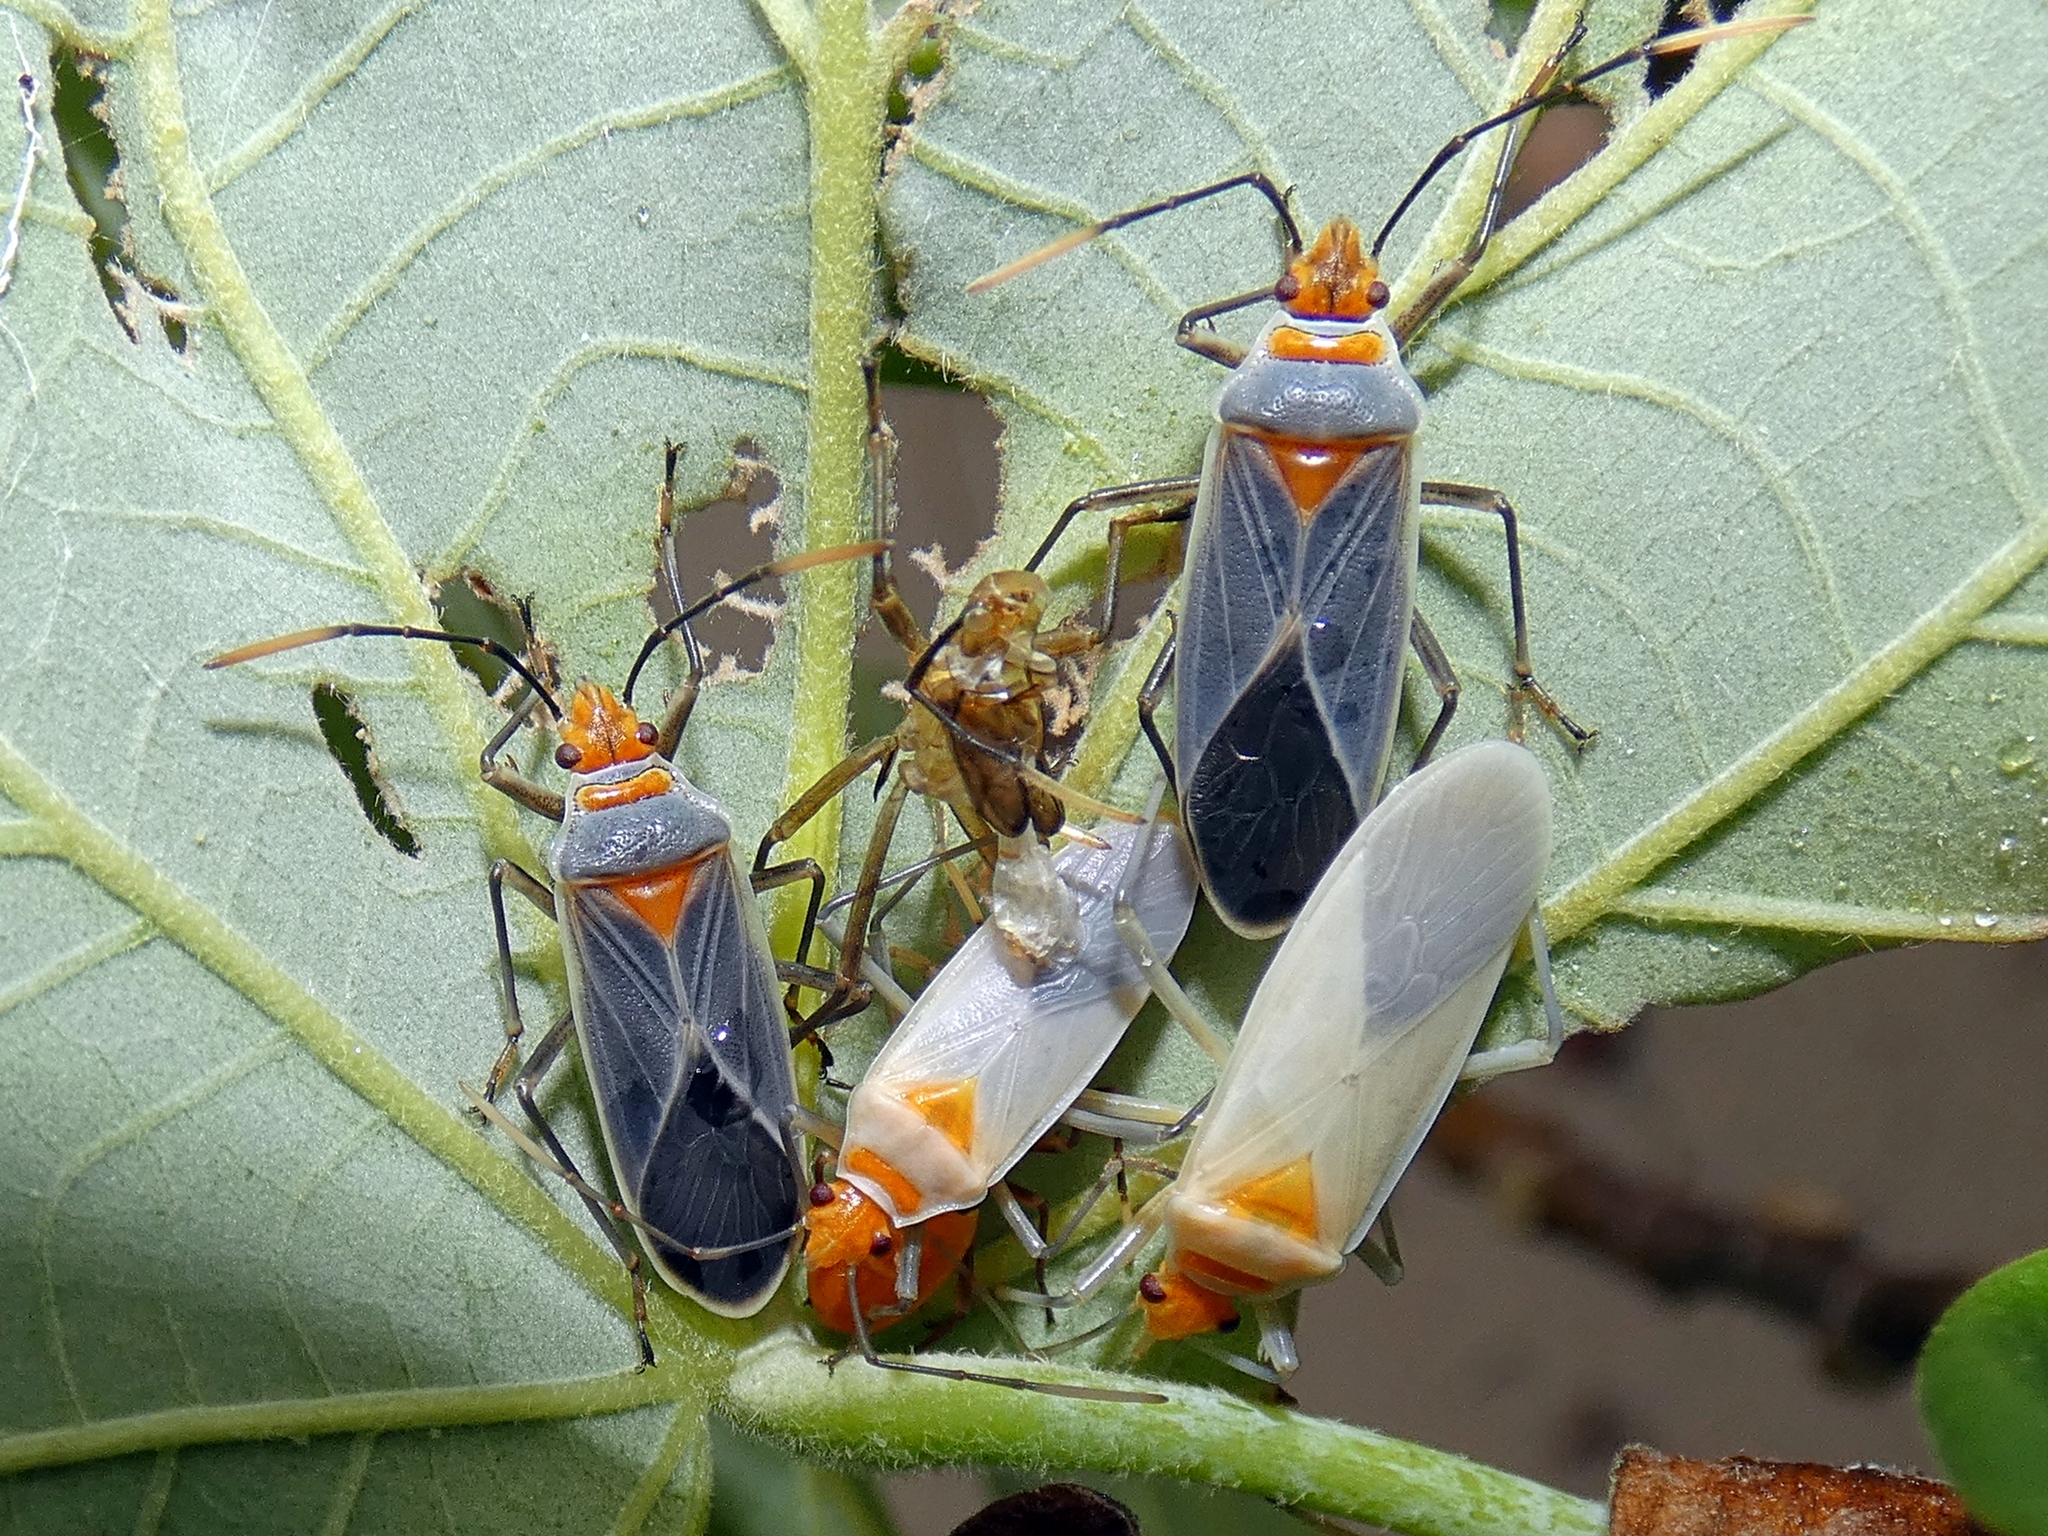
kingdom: Animalia
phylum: Arthropoda
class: Insecta
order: Hemiptera
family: Pyrrhocoridae
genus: Dysdercus
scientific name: Dysdercus argillaceus
